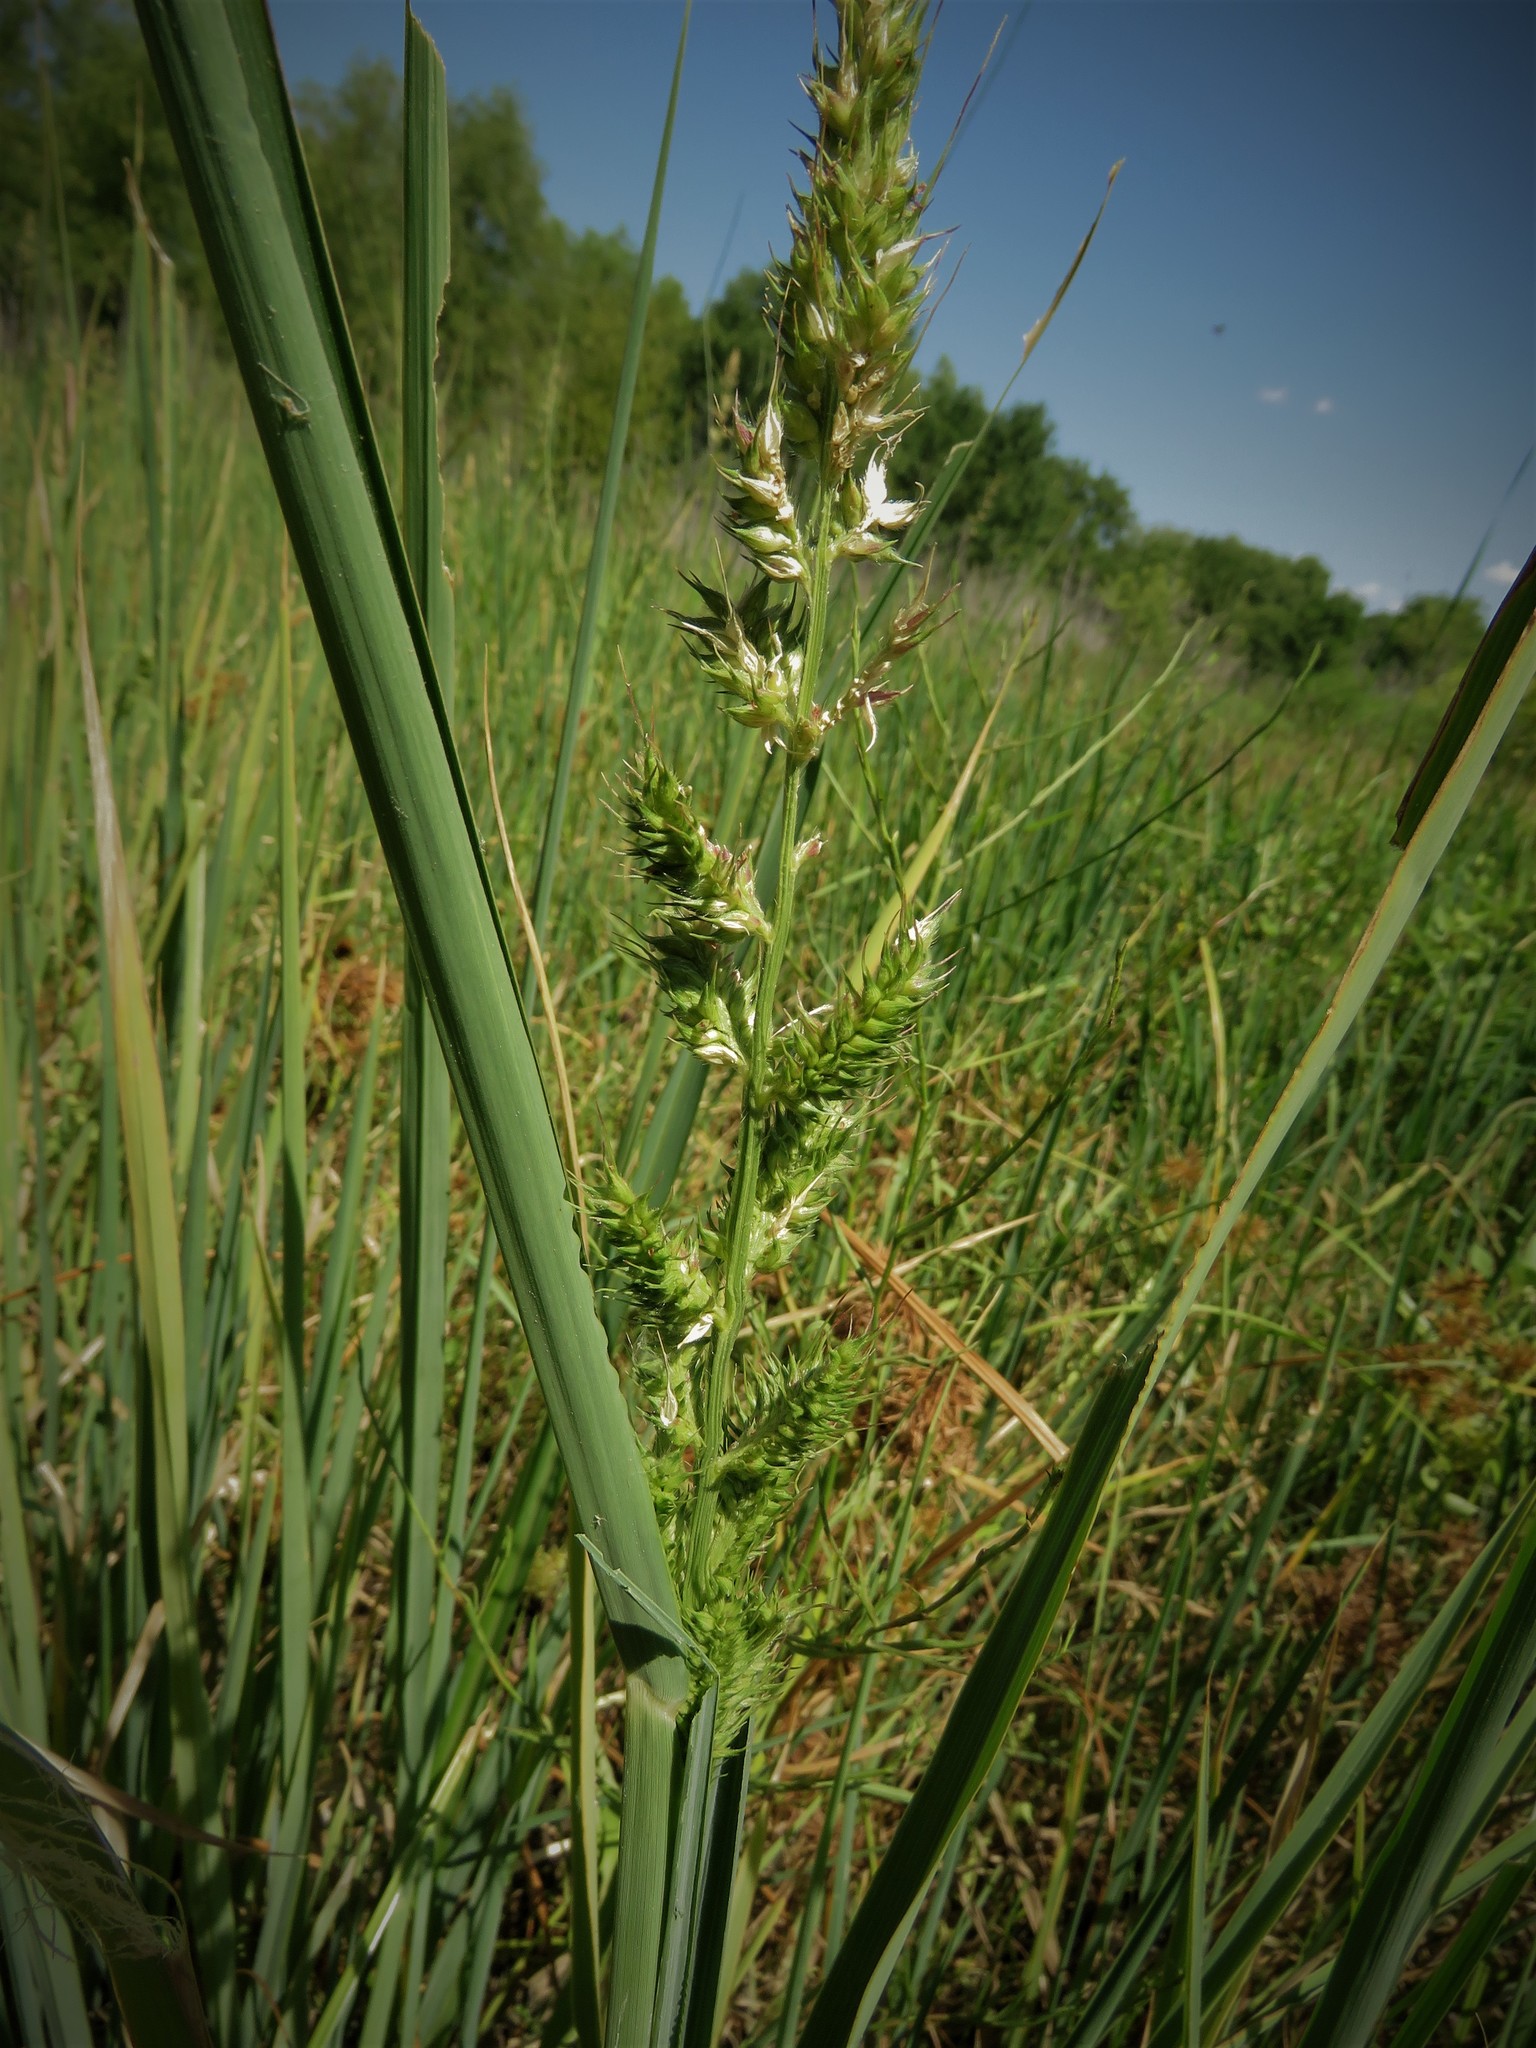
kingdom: Plantae
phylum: Tracheophyta
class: Liliopsida
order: Poales
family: Poaceae
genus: Echinochloa
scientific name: Echinochloa crus-galli
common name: Cockspur
